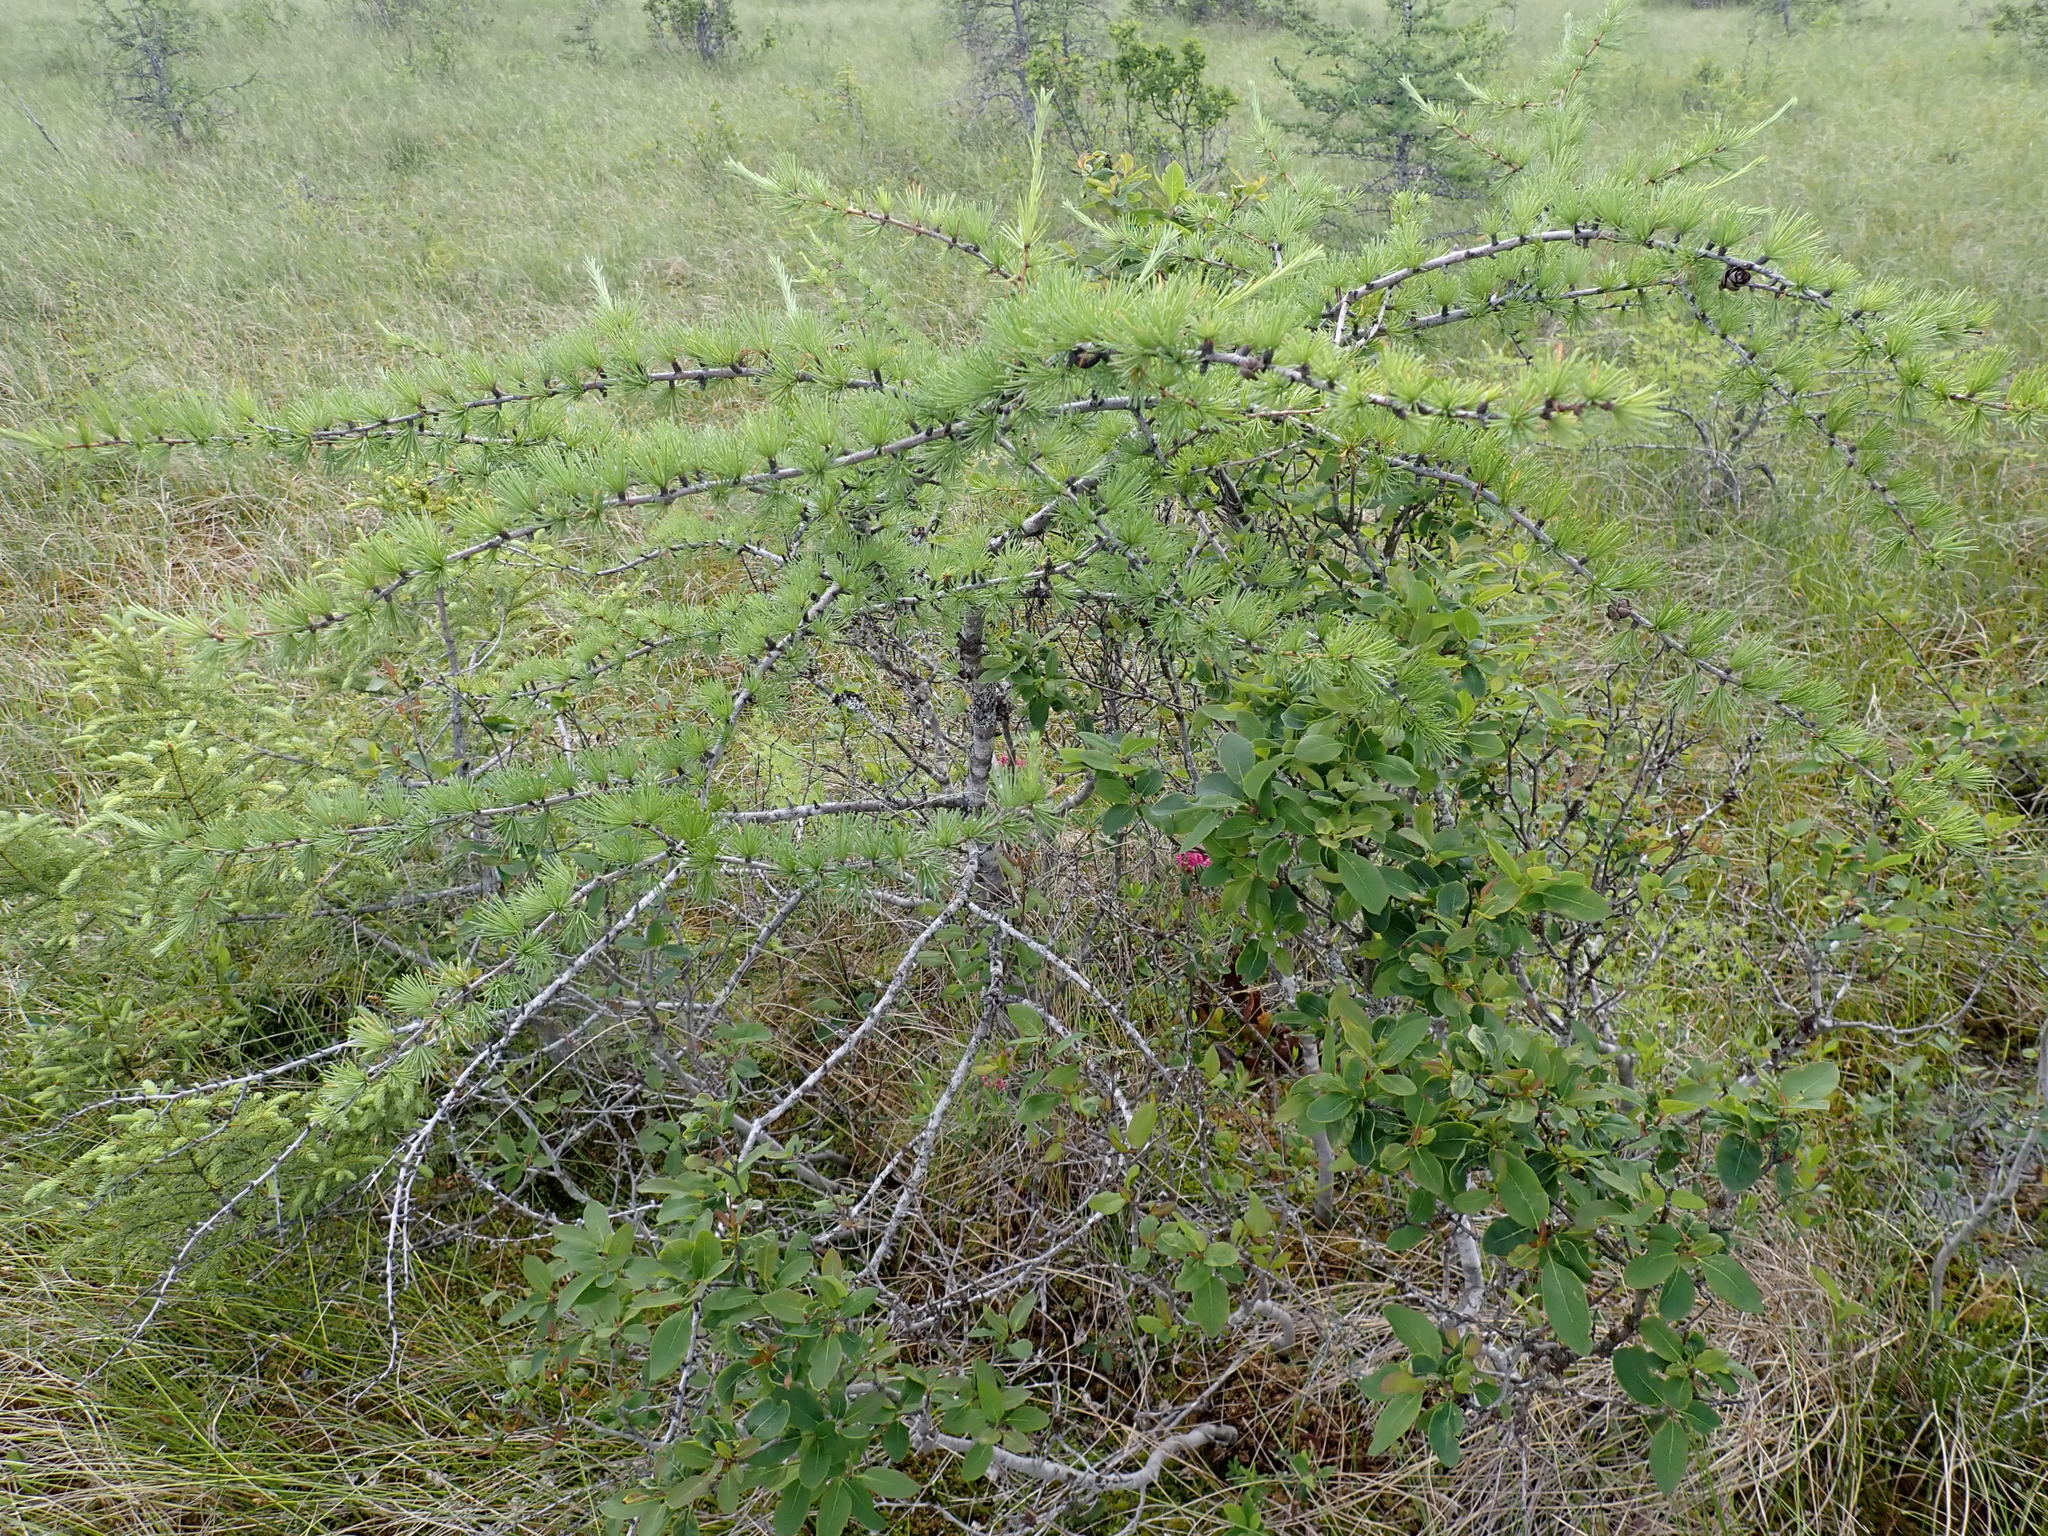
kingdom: Plantae
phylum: Tracheophyta
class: Pinopsida
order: Pinales
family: Pinaceae
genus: Larix
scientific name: Larix laricina
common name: American larch
